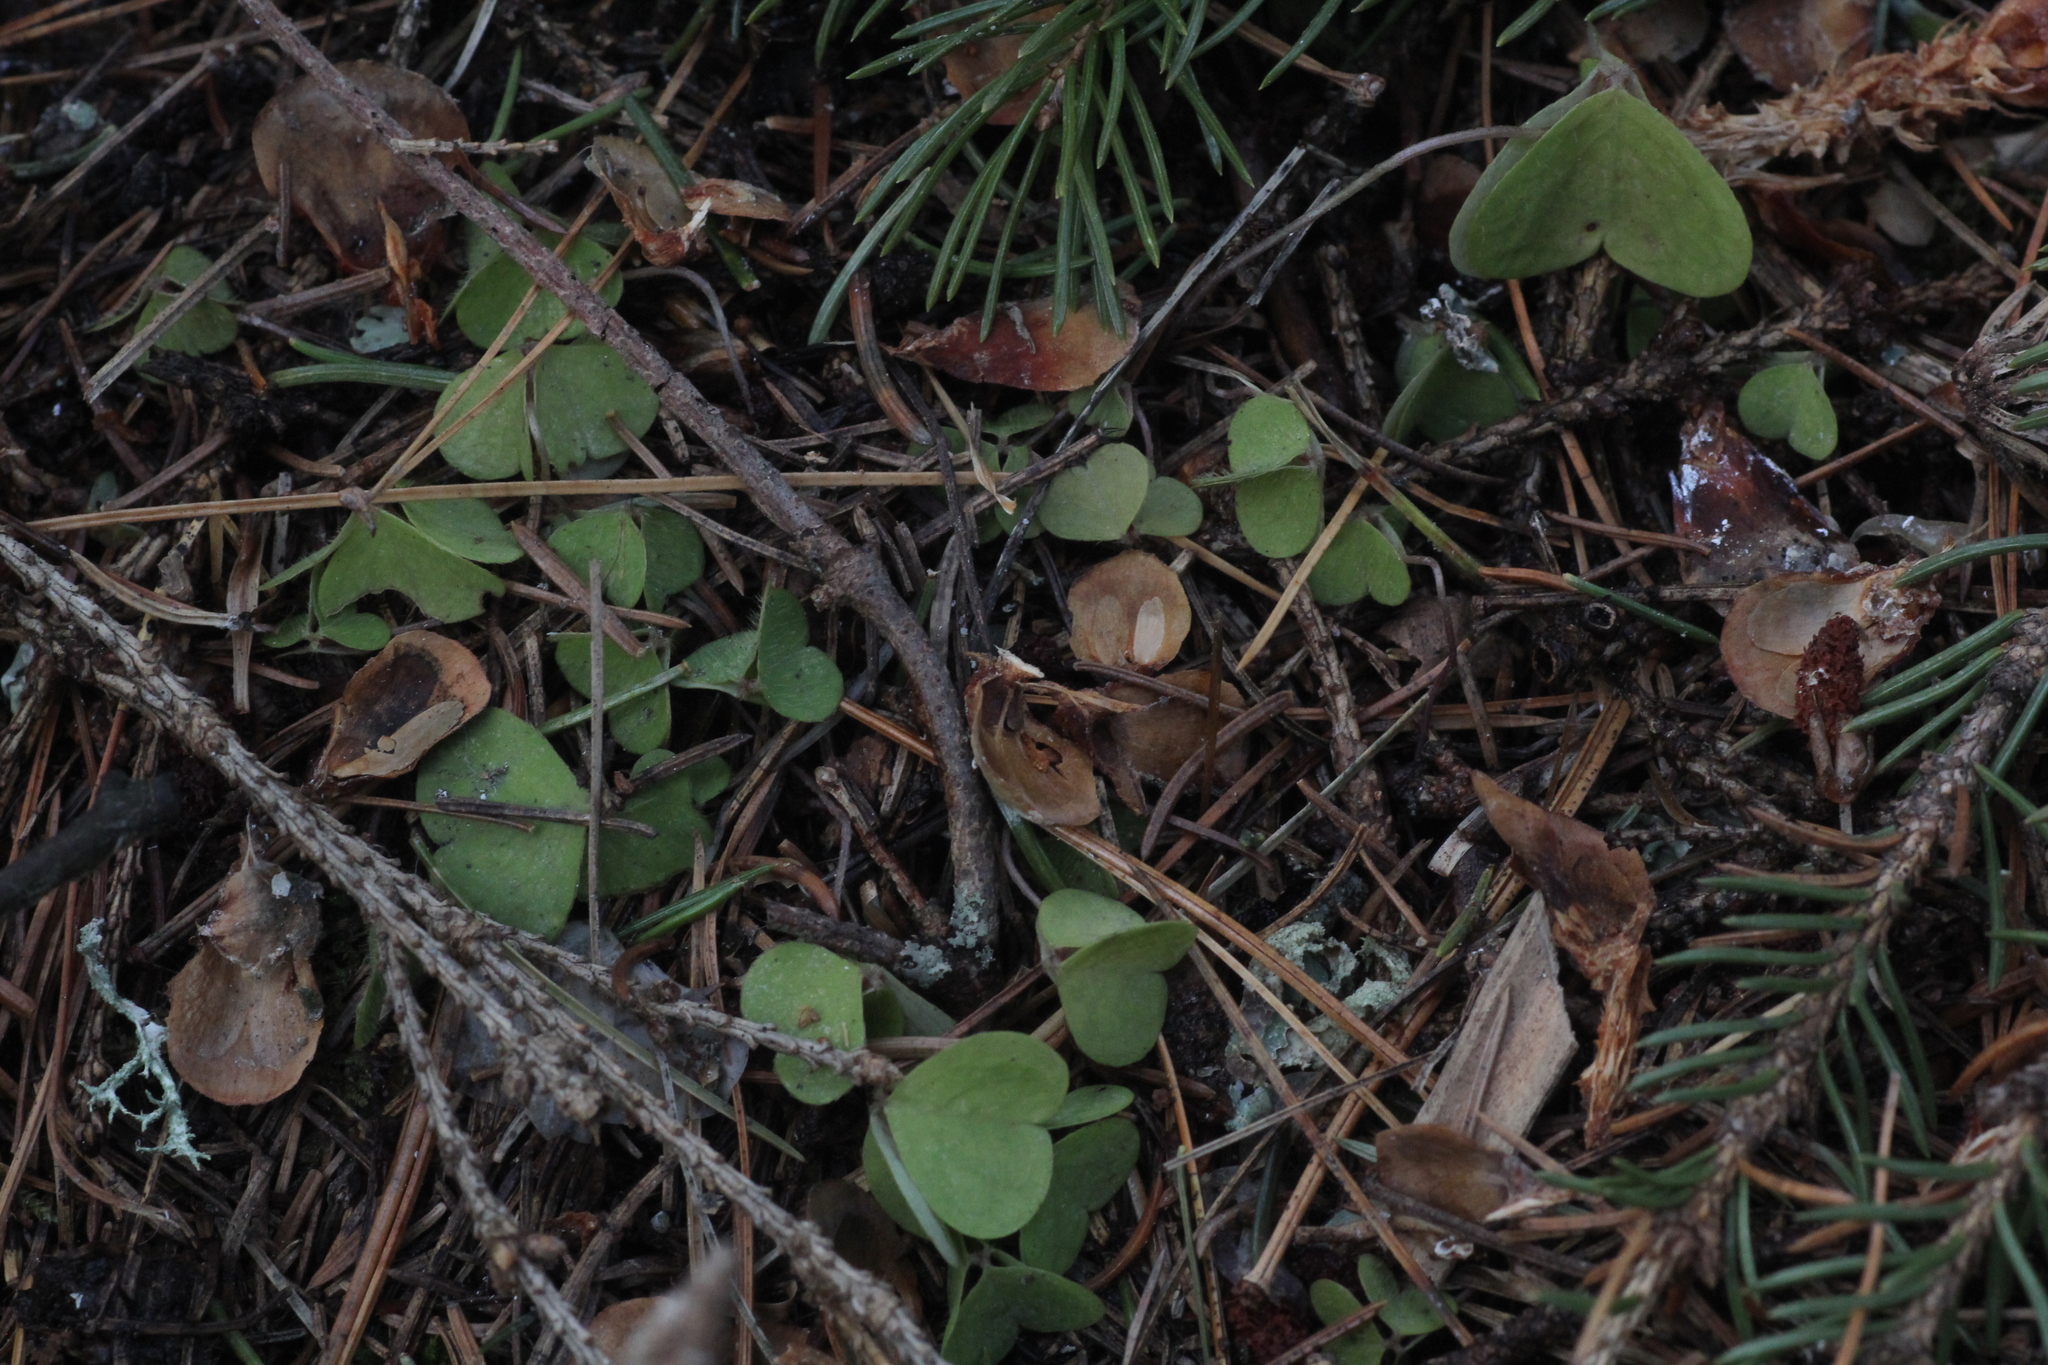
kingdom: Plantae
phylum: Tracheophyta
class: Magnoliopsida
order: Oxalidales
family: Oxalidaceae
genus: Oxalis
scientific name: Oxalis acetosella
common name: Wood-sorrel
